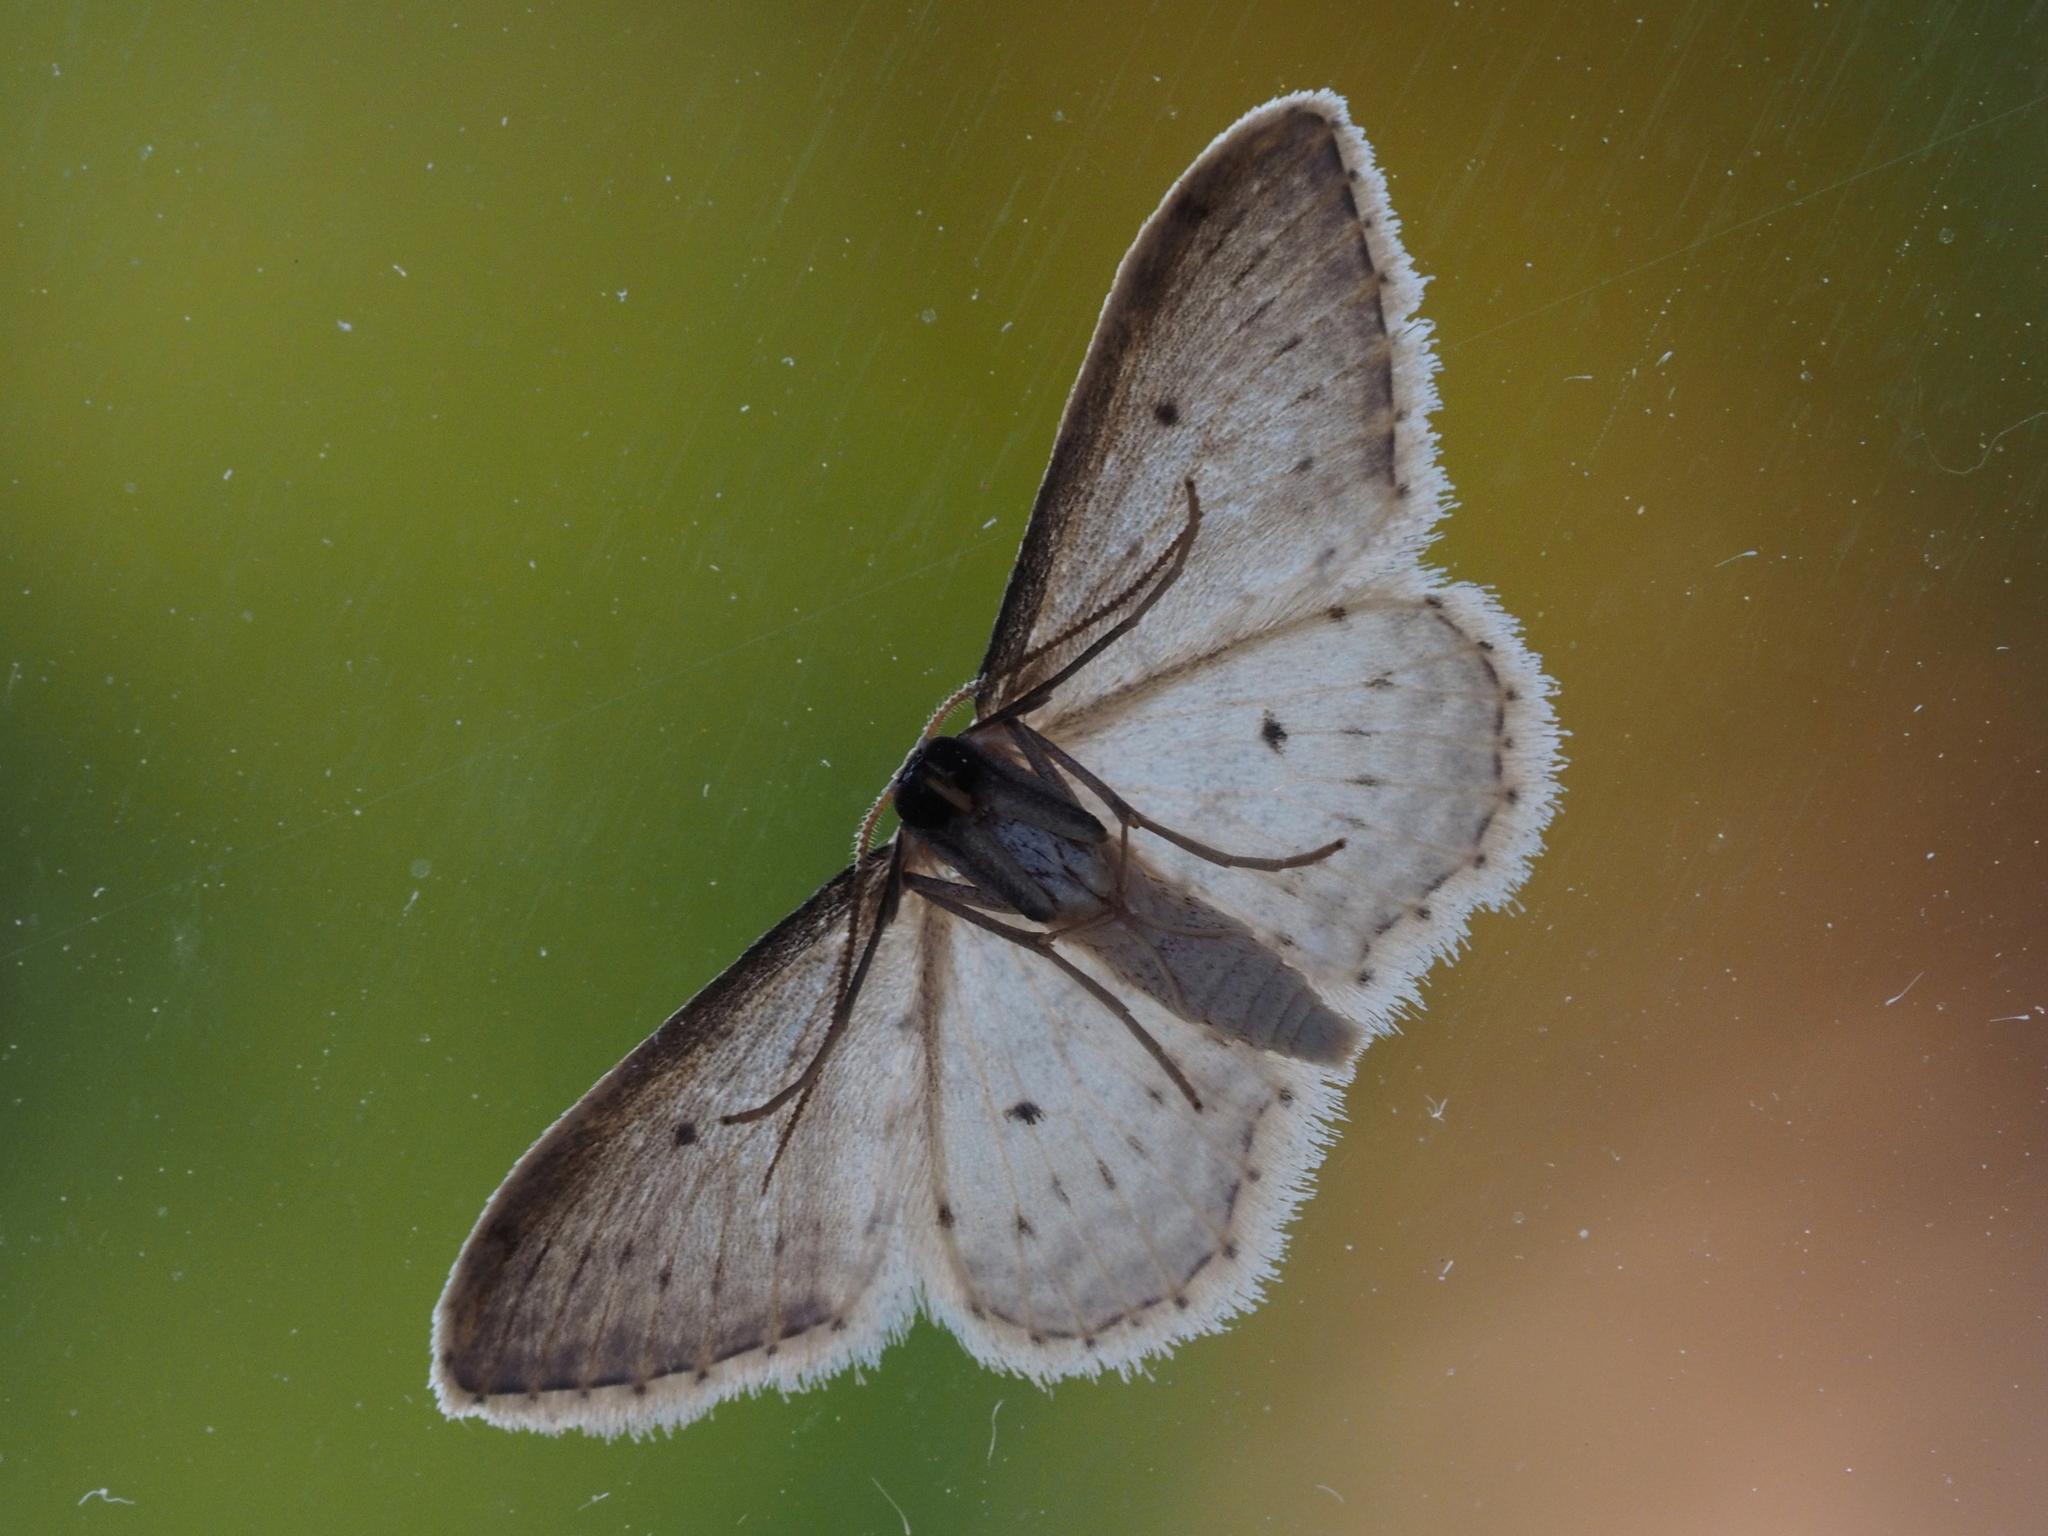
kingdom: Animalia
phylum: Arthropoda
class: Insecta
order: Lepidoptera
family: Geometridae
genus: Idaea
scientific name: Idaea seriata
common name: Small dusty wave
